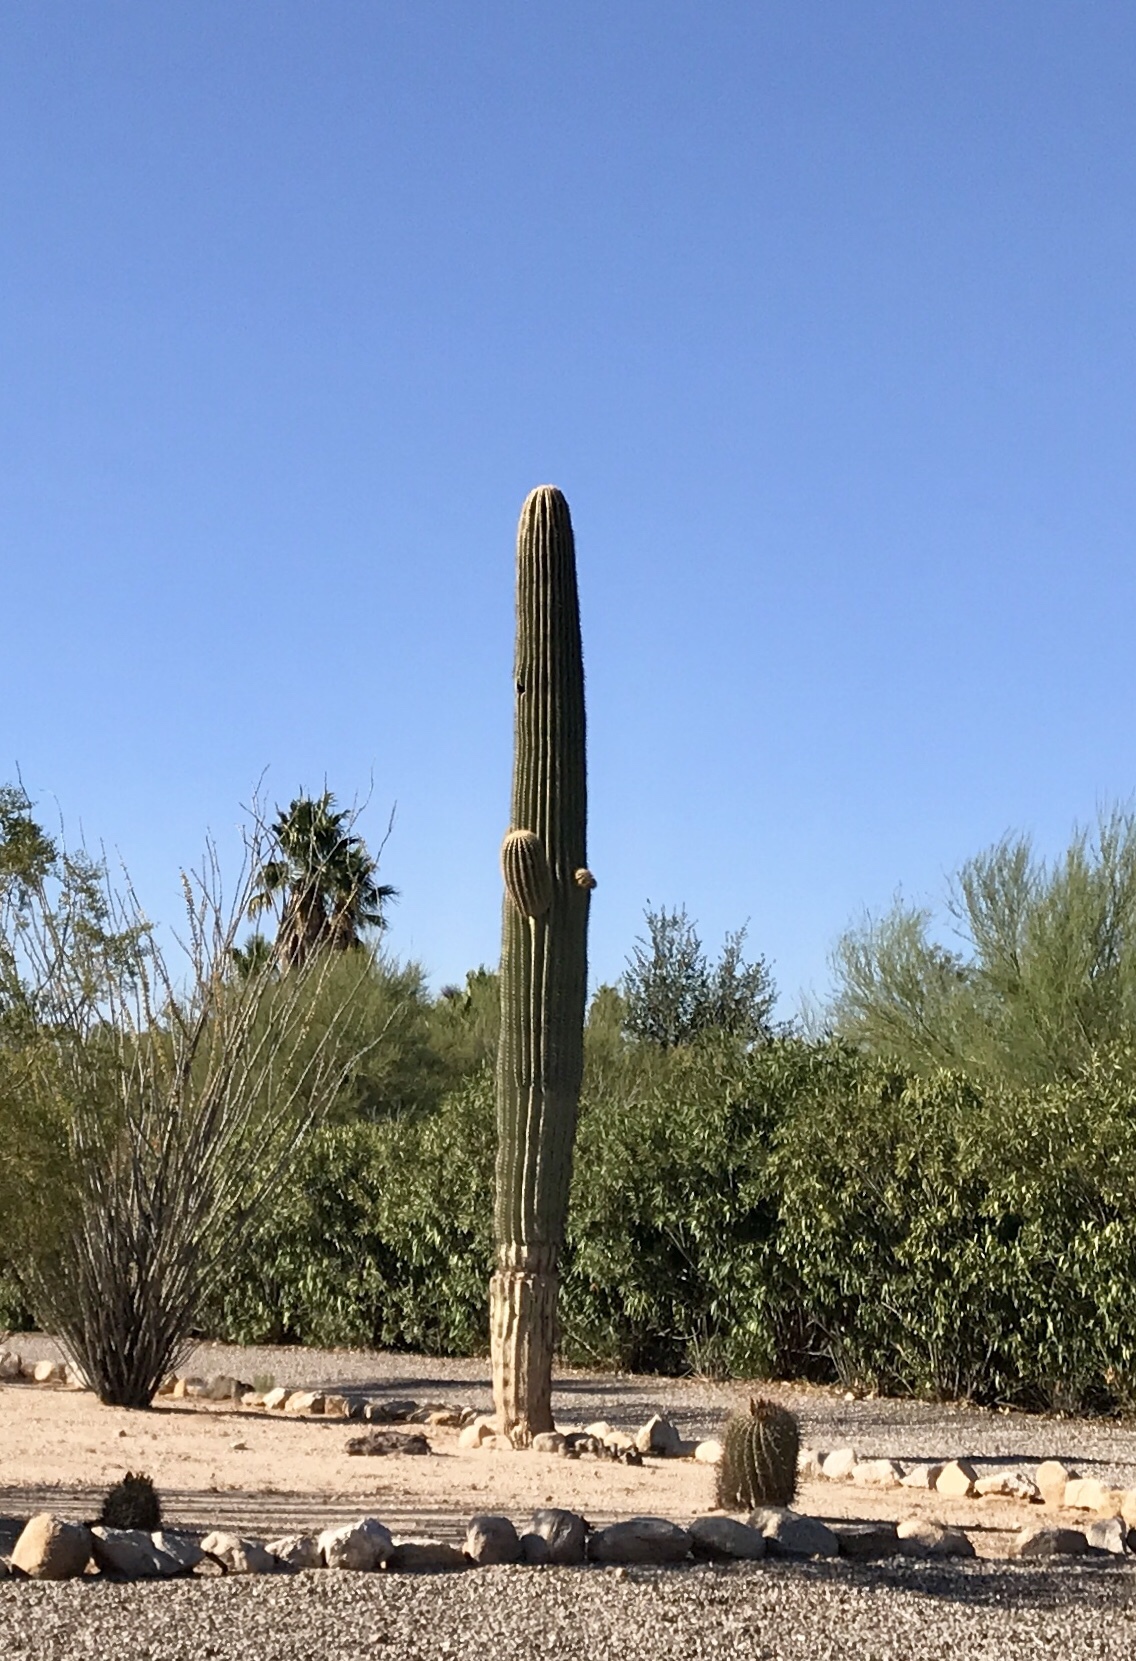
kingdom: Plantae
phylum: Tracheophyta
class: Magnoliopsida
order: Caryophyllales
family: Cactaceae
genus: Carnegiea
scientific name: Carnegiea gigantea
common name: Saguaro
